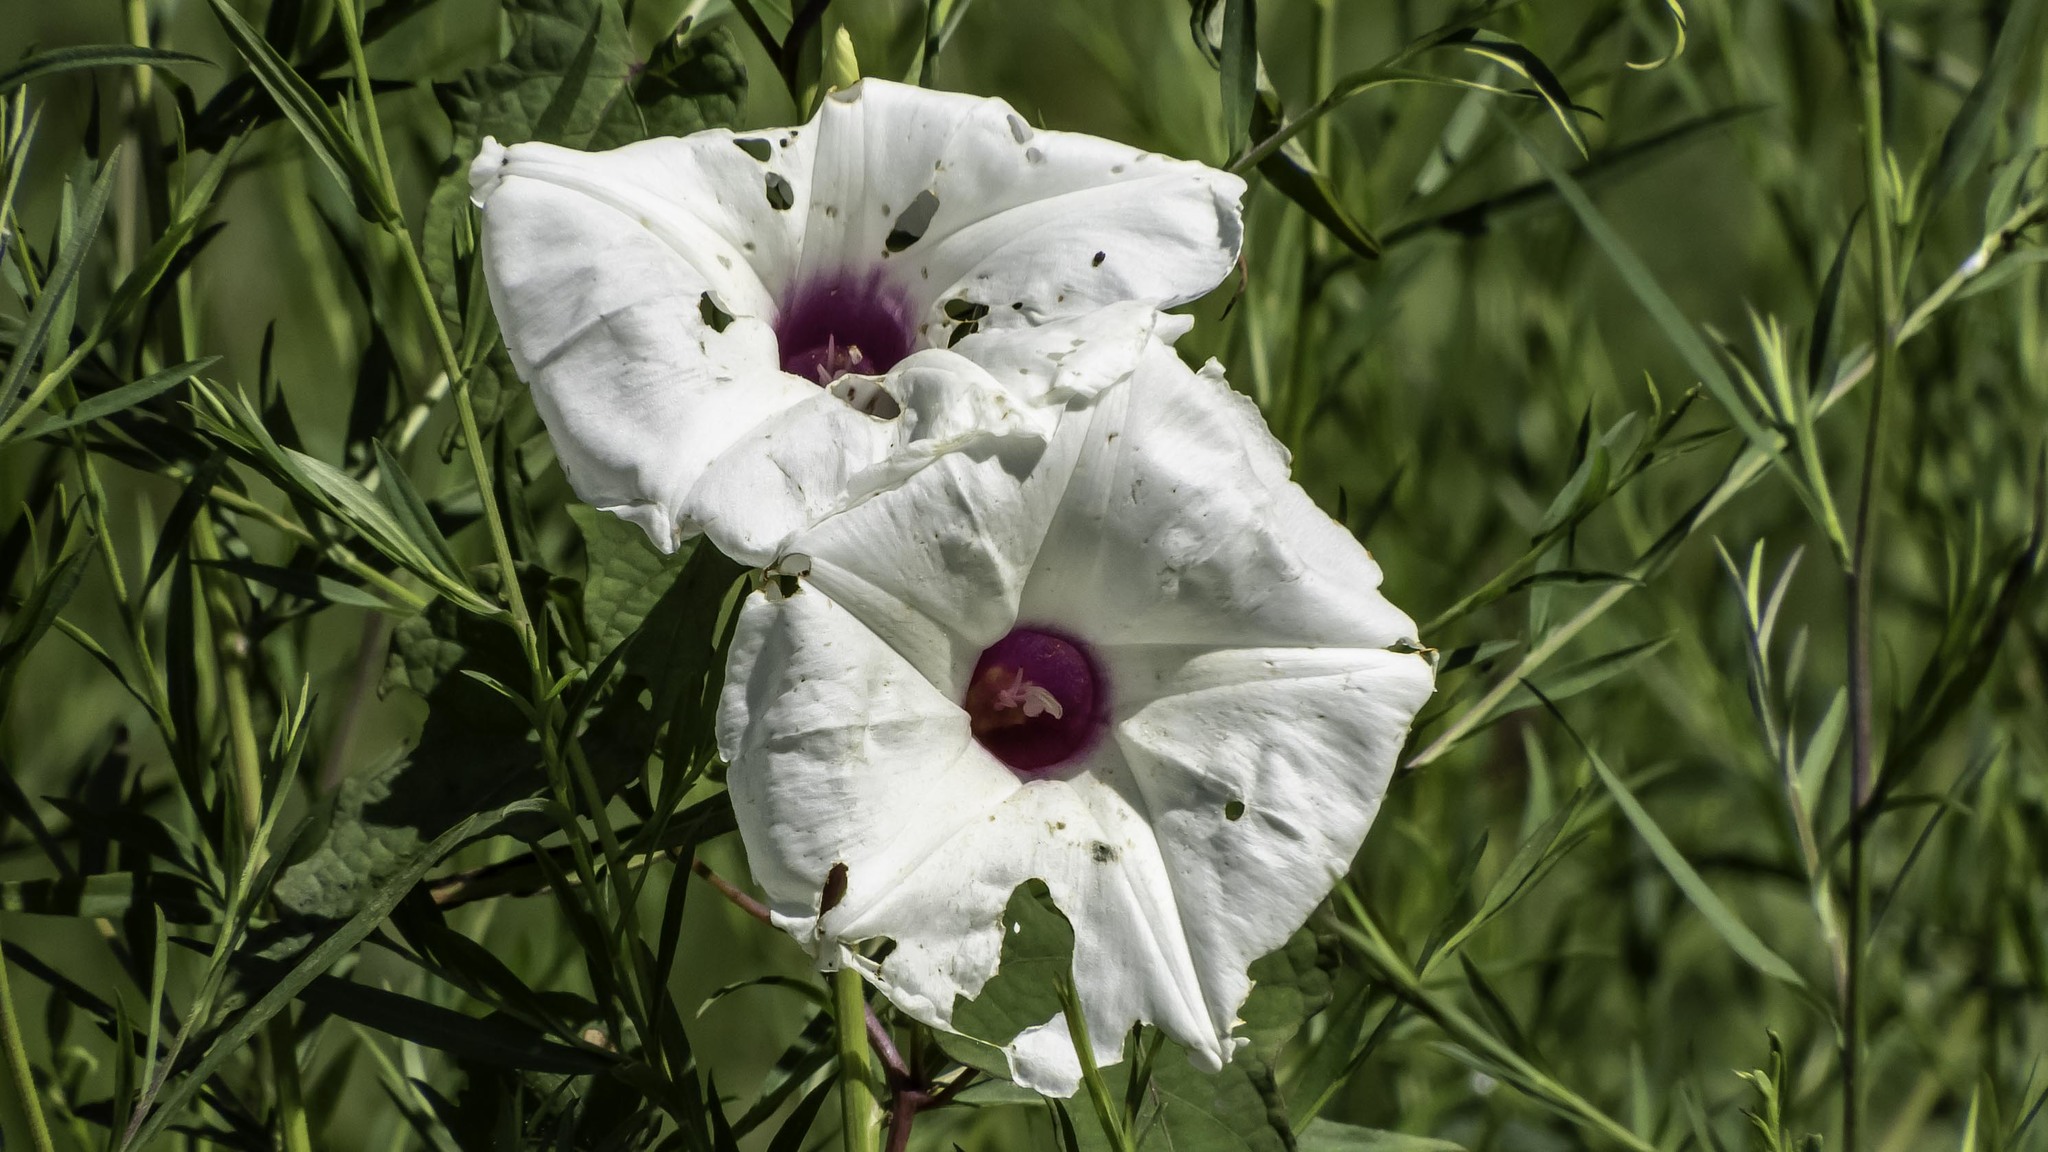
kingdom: Plantae
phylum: Tracheophyta
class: Magnoliopsida
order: Solanales
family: Convolvulaceae
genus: Ipomoea
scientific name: Ipomoea pandurata
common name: Man-of-the-earth
